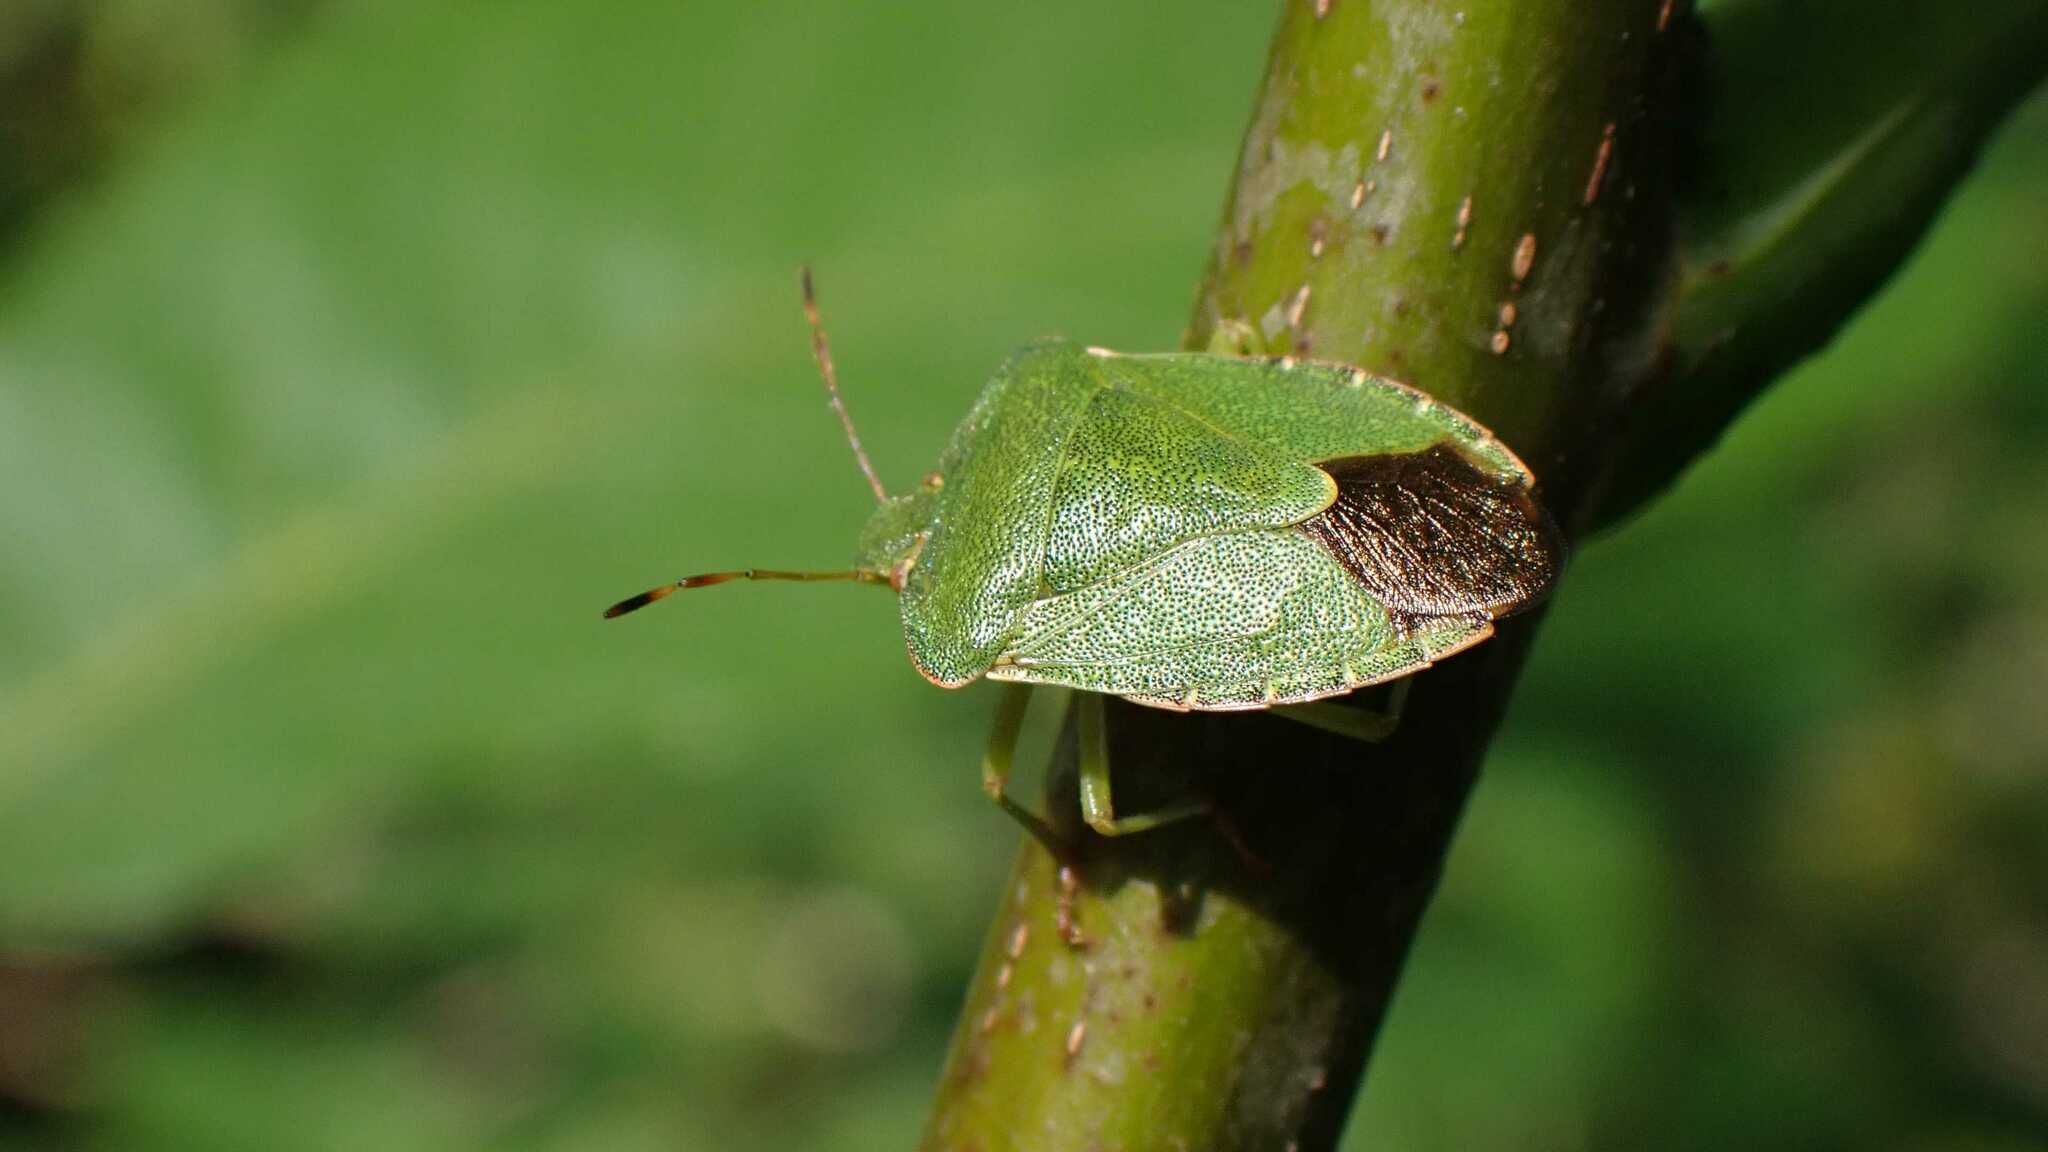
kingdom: Animalia
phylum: Arthropoda
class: Insecta
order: Hemiptera
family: Pentatomidae
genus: Palomena
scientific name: Palomena prasina
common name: Green shieldbug
